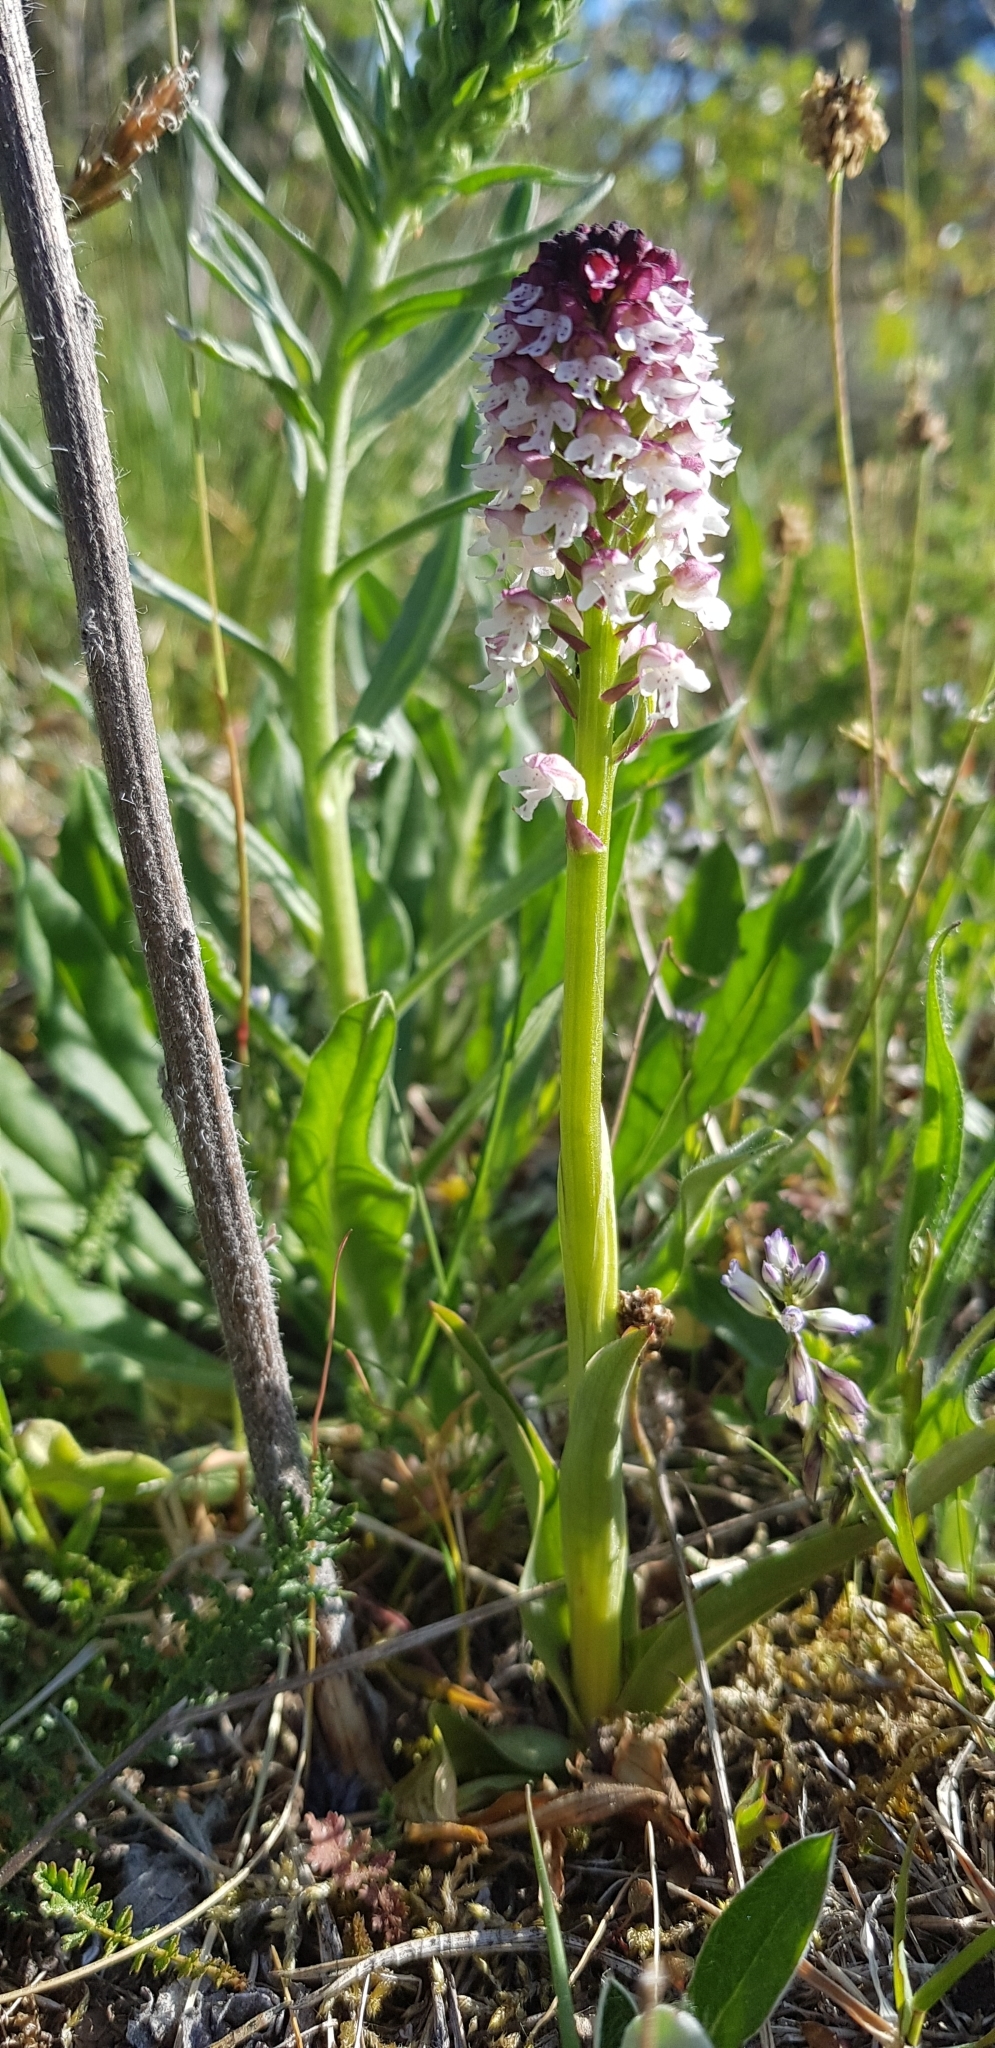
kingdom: Plantae
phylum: Tracheophyta
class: Liliopsida
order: Asparagales
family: Orchidaceae
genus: Neotinea
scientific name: Neotinea ustulata
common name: Burnt orchid
